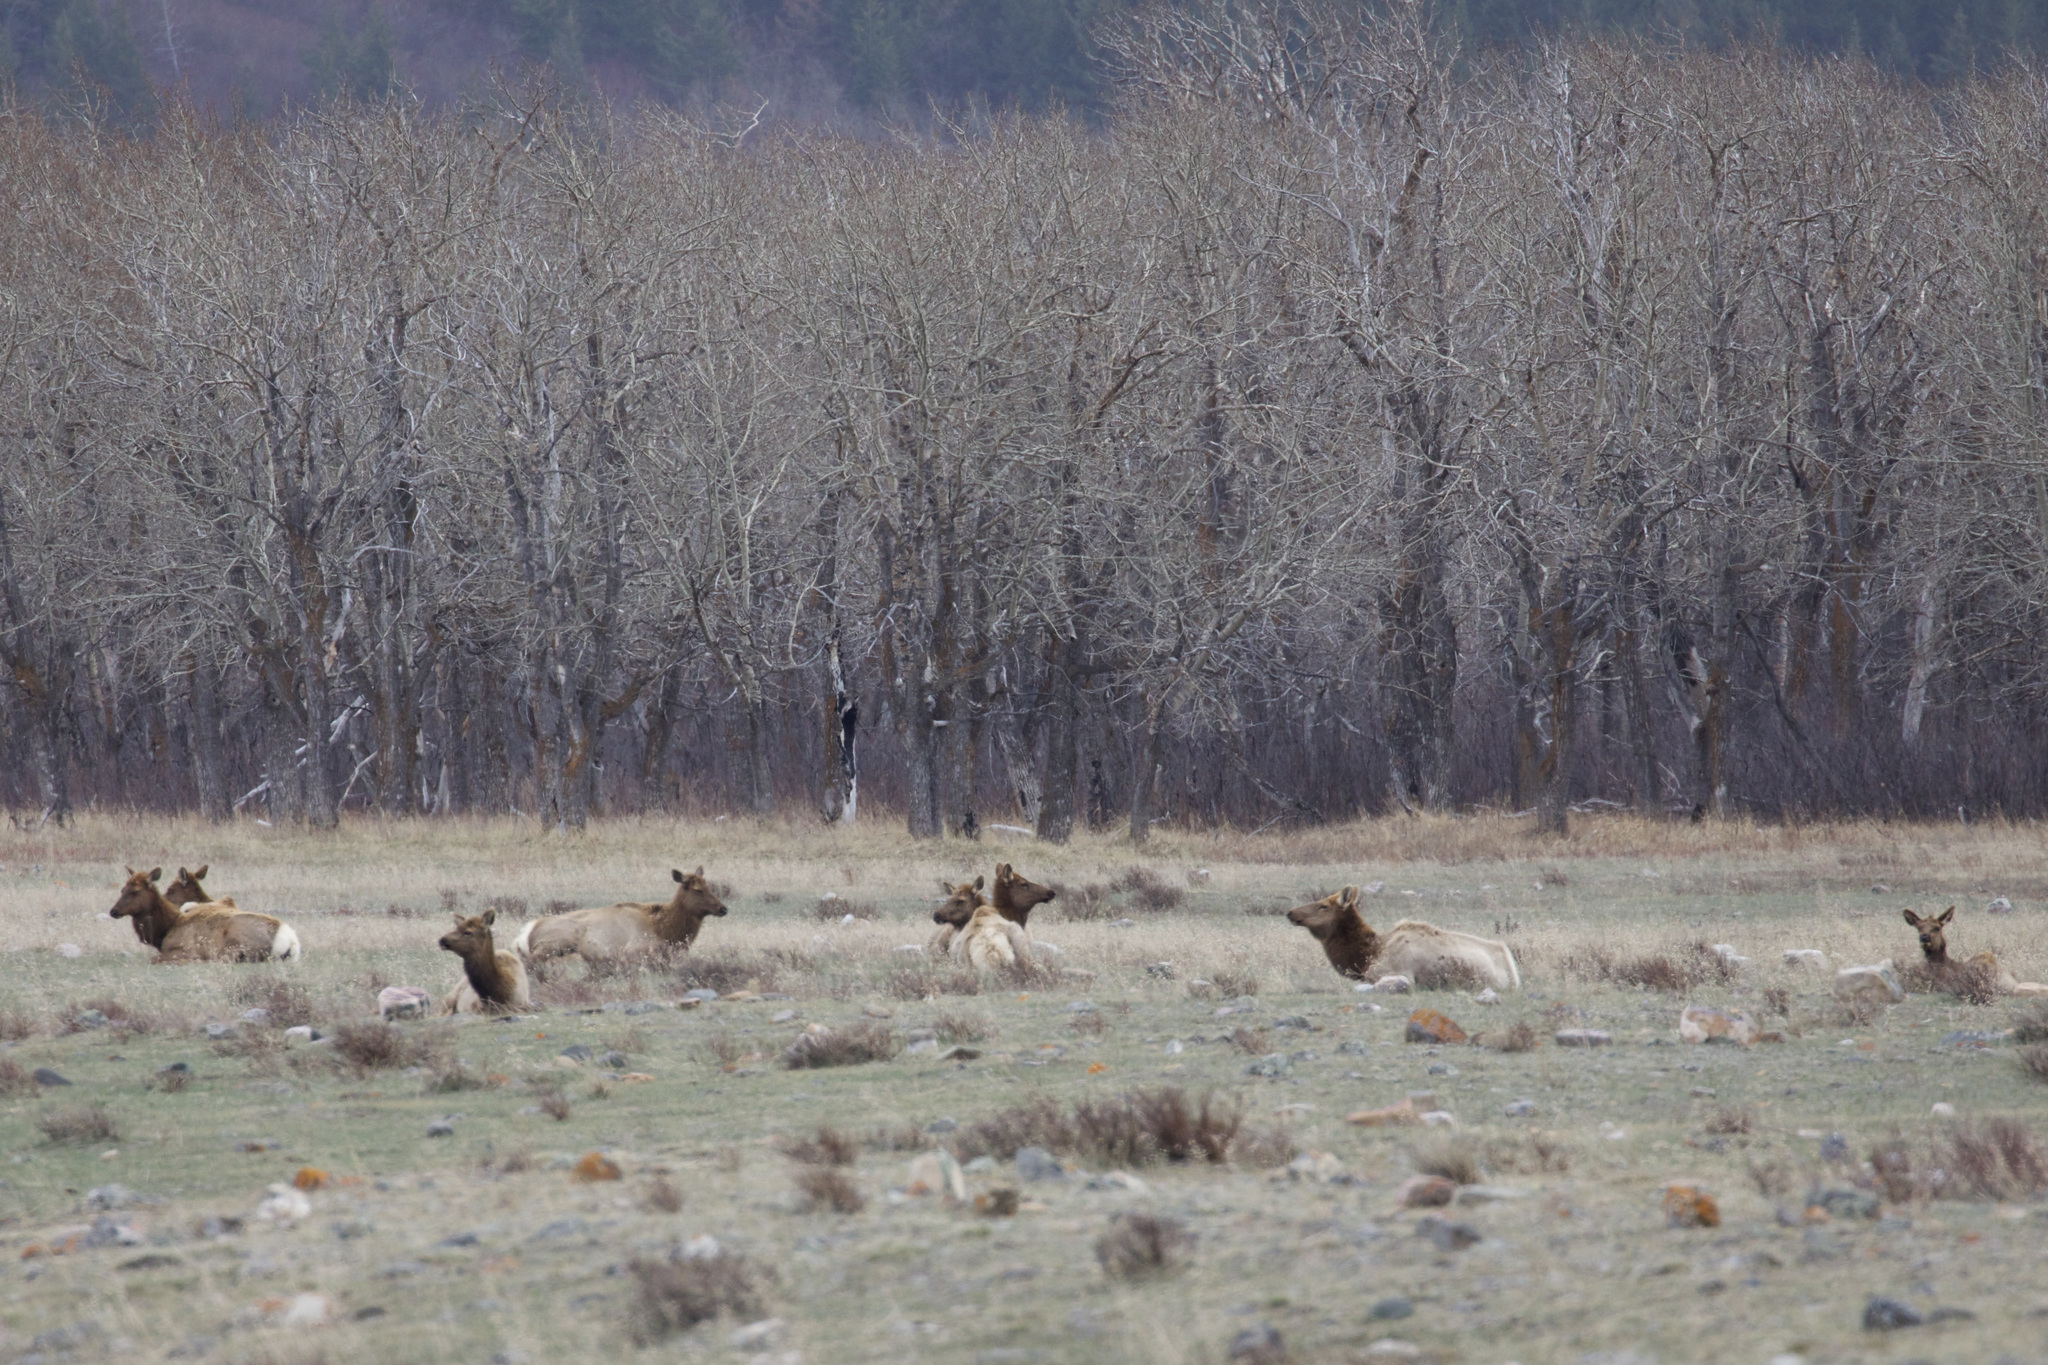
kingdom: Animalia
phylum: Chordata
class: Mammalia
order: Artiodactyla
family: Cervidae
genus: Cervus
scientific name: Cervus elaphus
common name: Red deer
